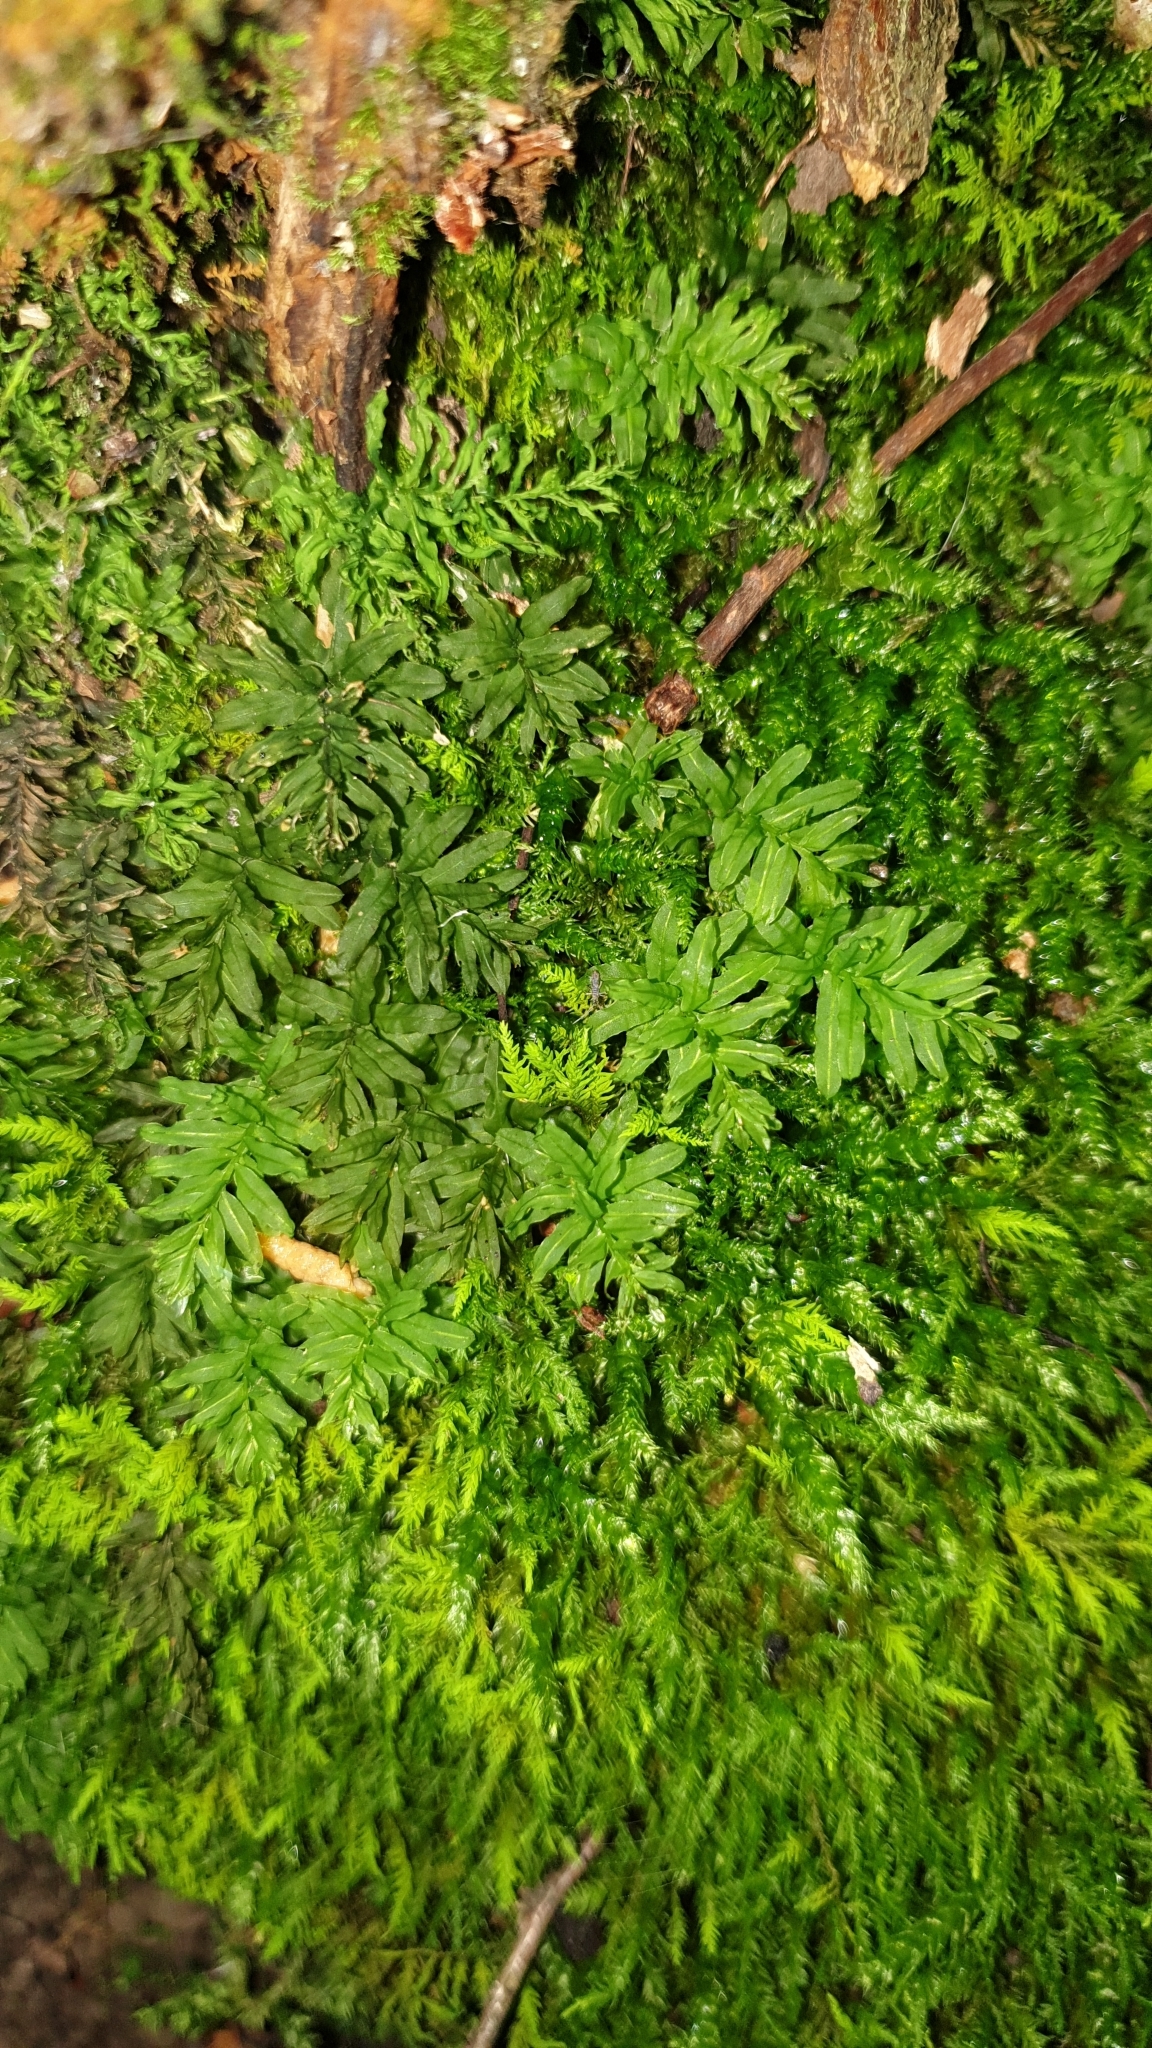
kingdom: Plantae
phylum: Bryophyta
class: Bryopsida
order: Bryales
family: Mniaceae
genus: Plagiomnium
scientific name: Plagiomnium undulatum
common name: Hart's-tongue thyme-moss
